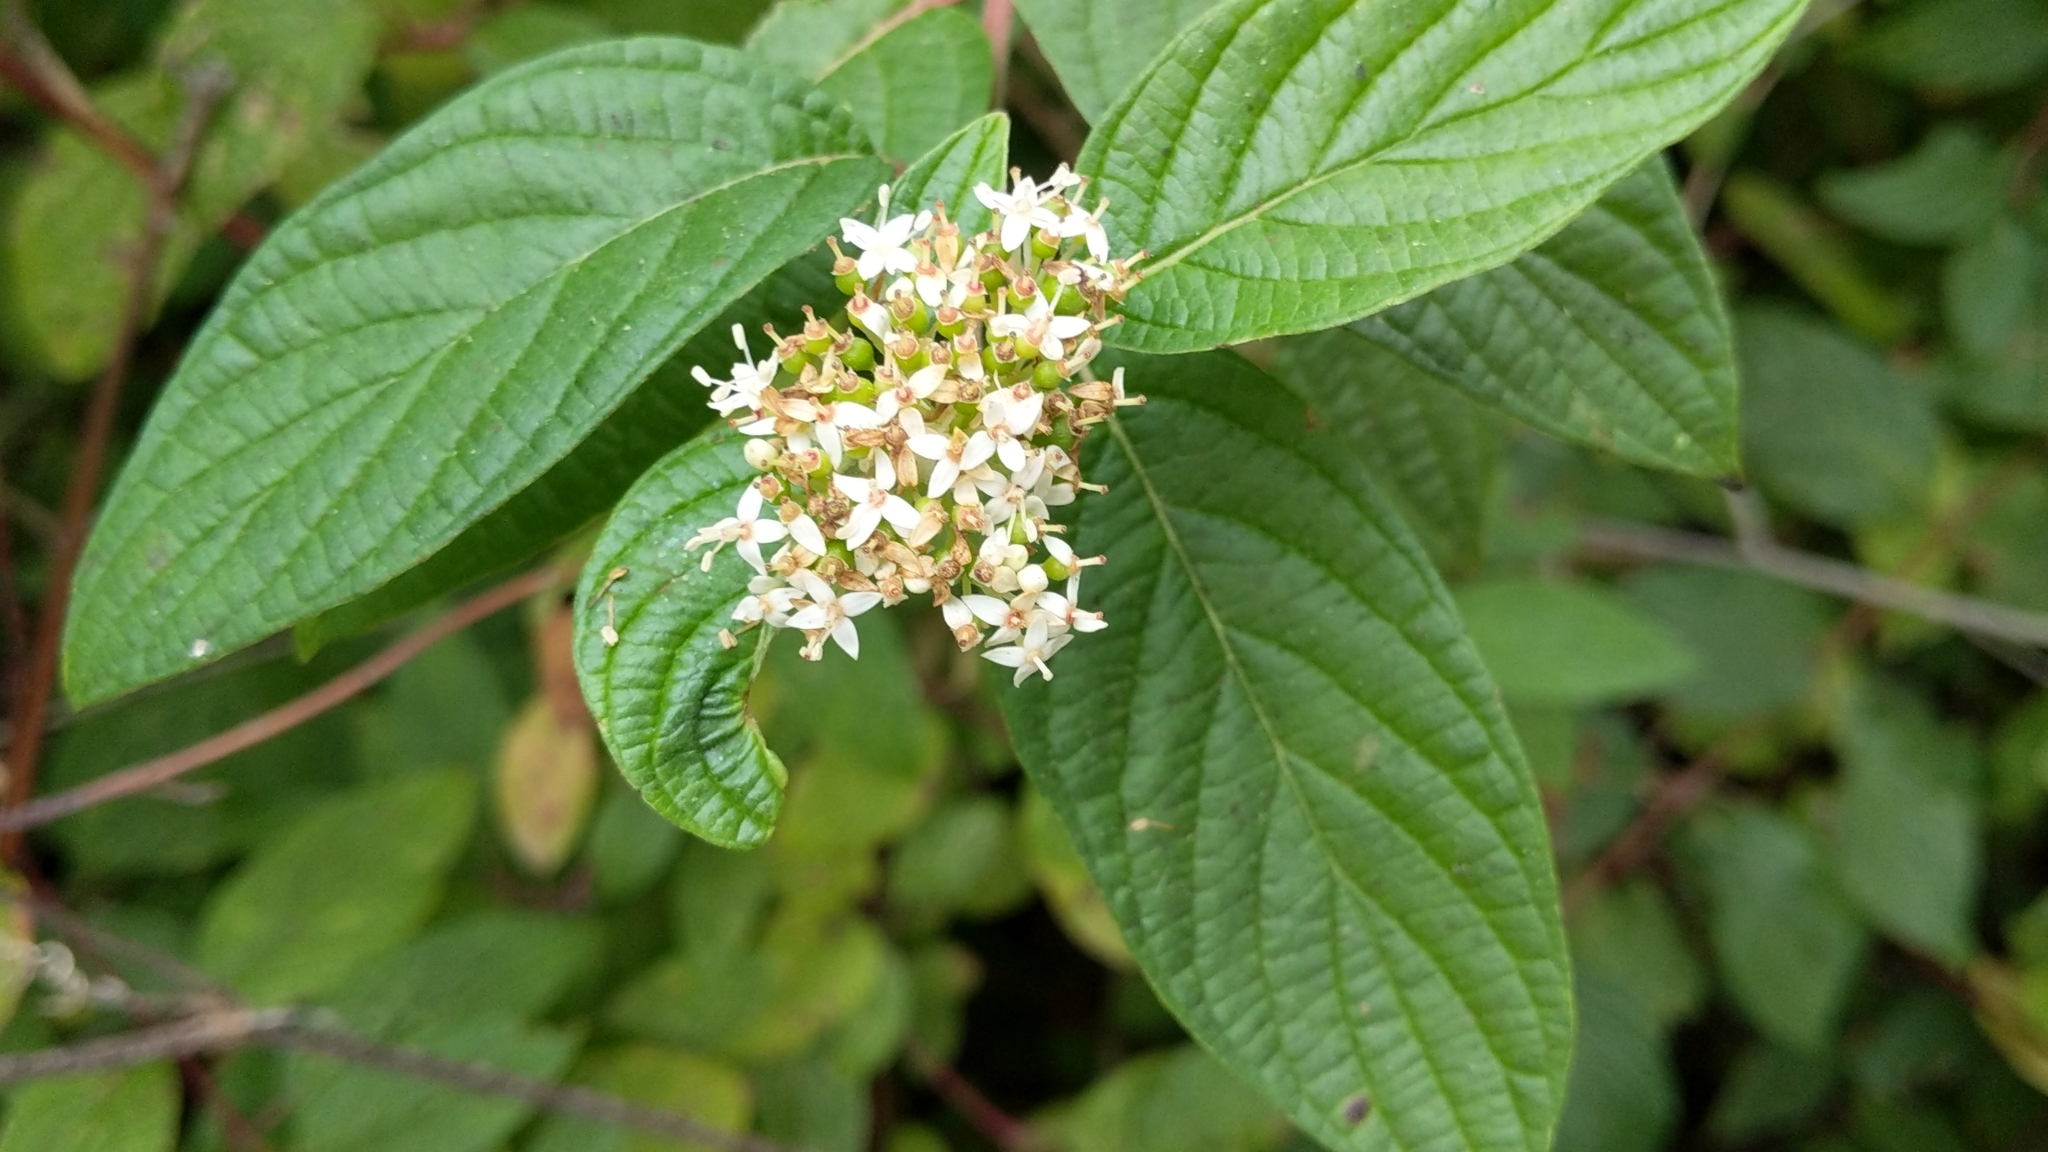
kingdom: Plantae
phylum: Tracheophyta
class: Magnoliopsida
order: Cornales
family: Cornaceae
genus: Cornus
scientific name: Cornus sericea
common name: Red-osier dogwood
